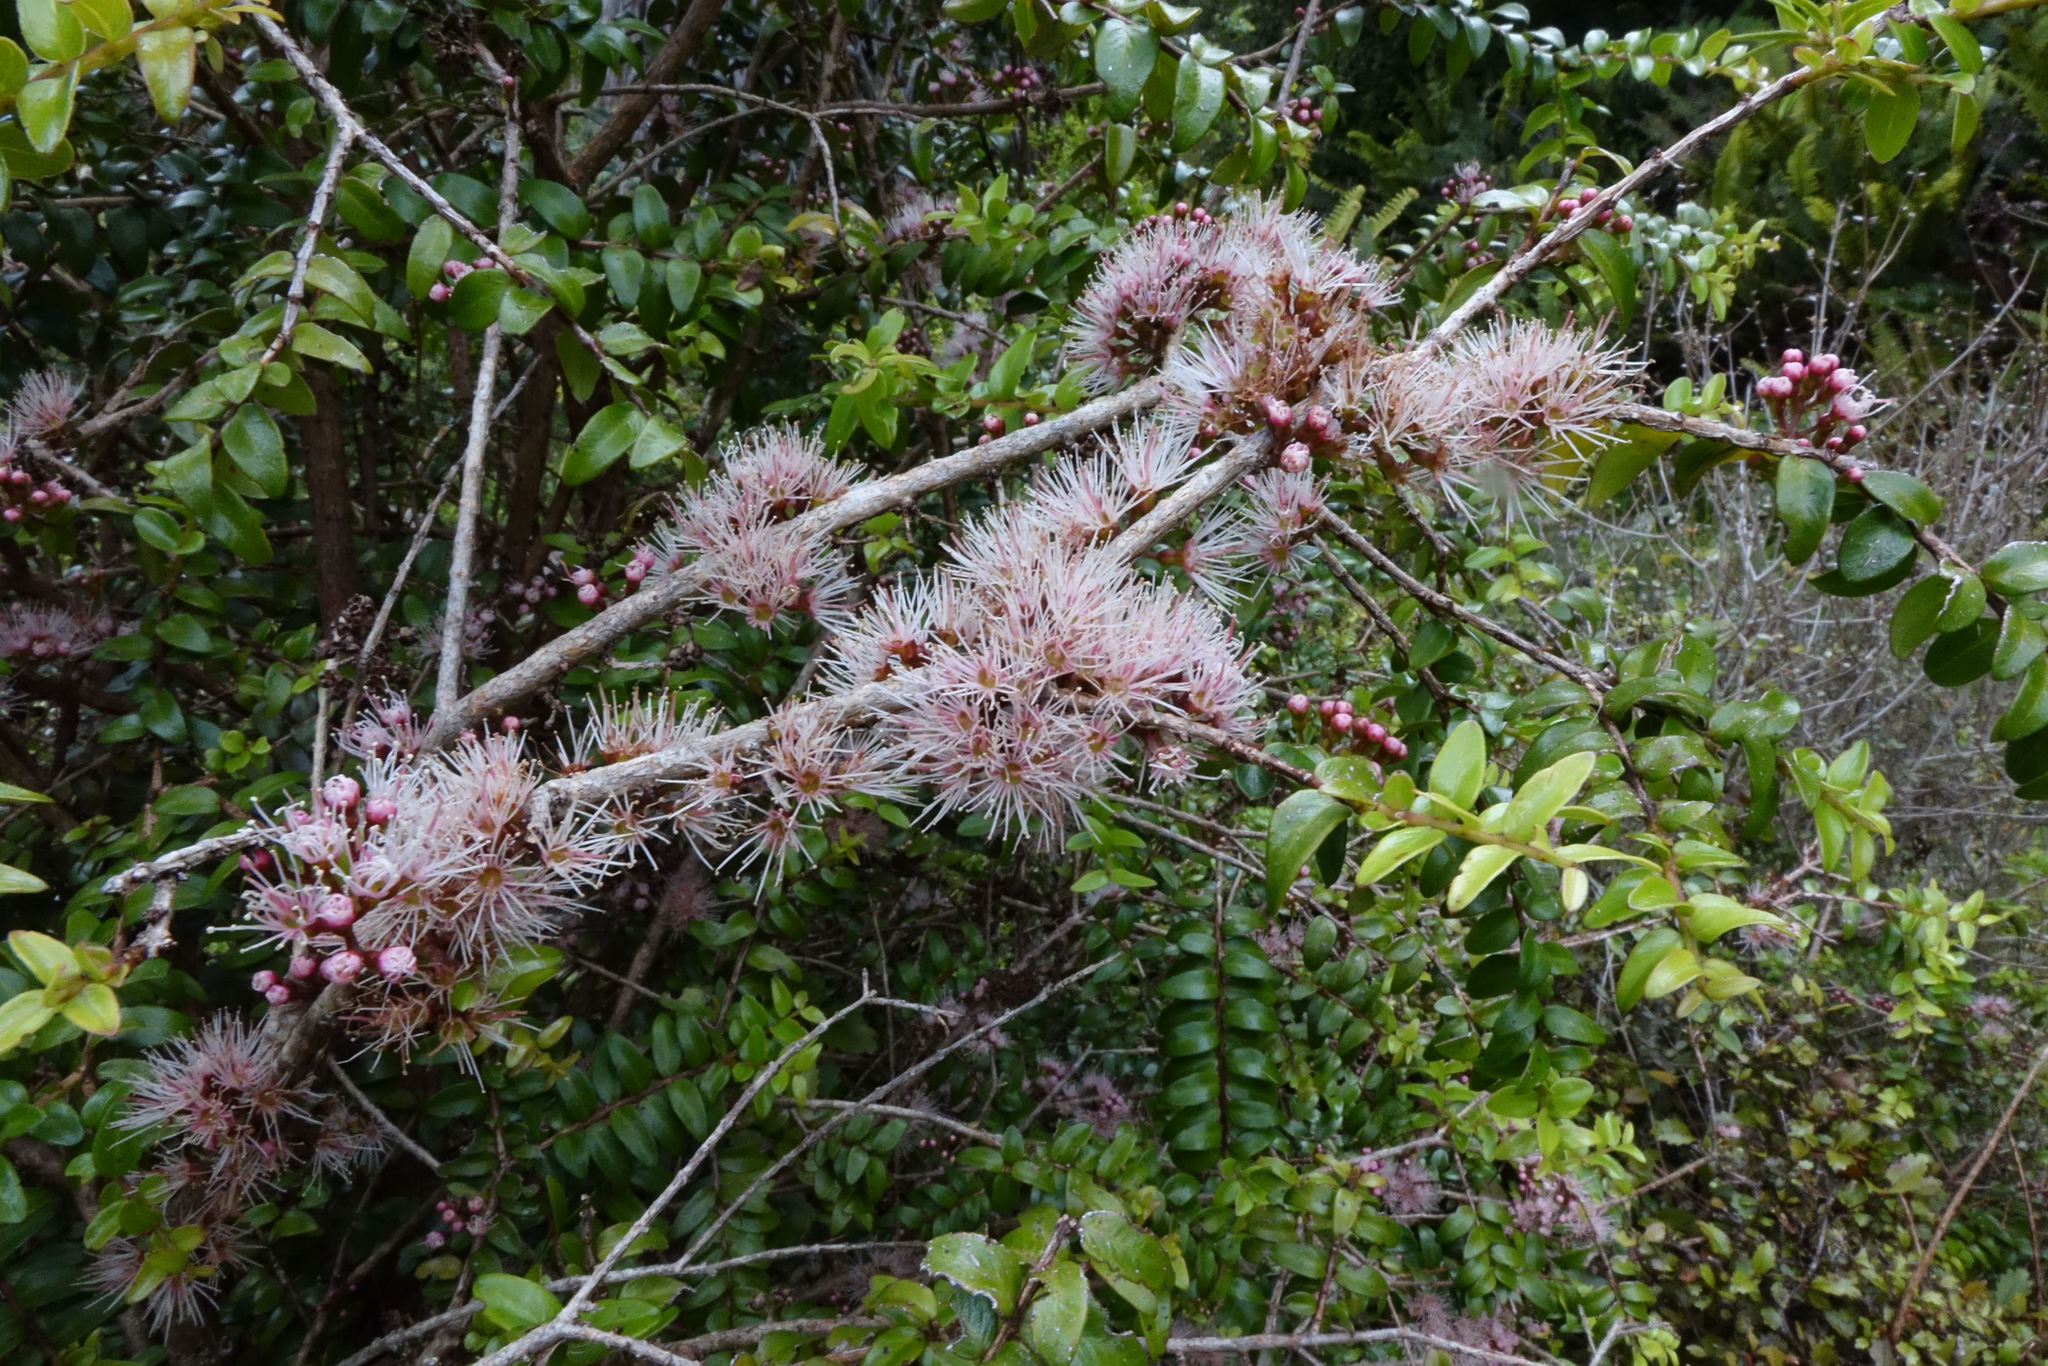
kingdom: Plantae
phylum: Tracheophyta
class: Magnoliopsida
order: Myrtales
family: Myrtaceae
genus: Metrosideros
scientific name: Metrosideros diffusa
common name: Small ratavine
